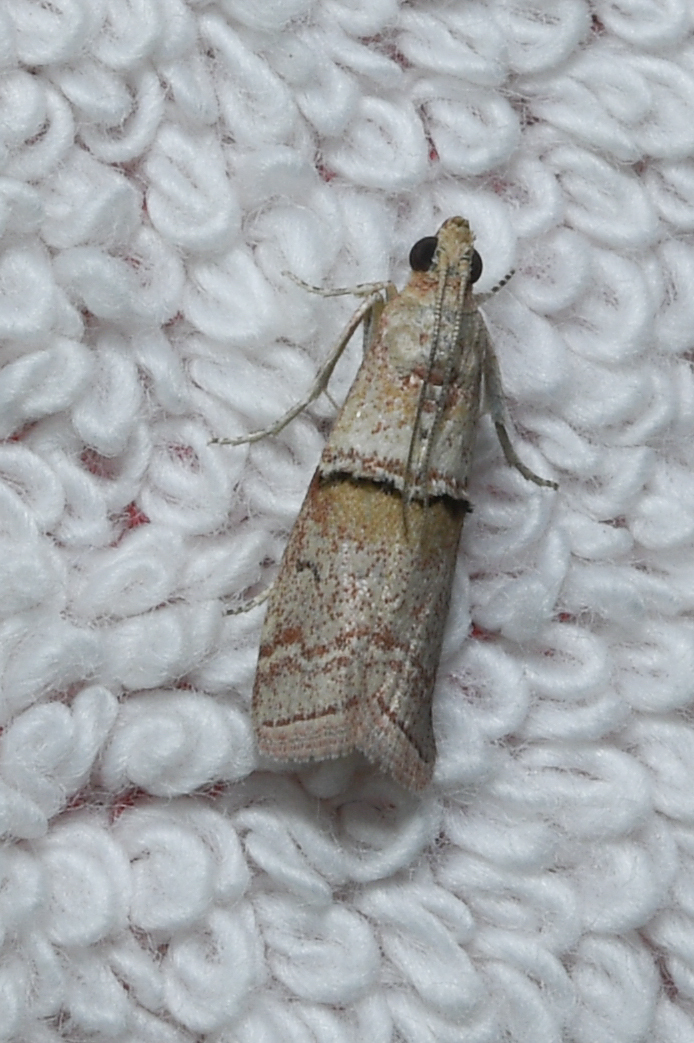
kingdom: Animalia
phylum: Arthropoda
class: Insecta
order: Lepidoptera
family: Pyralidae
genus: Pempelia
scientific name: Pempelia turturella
